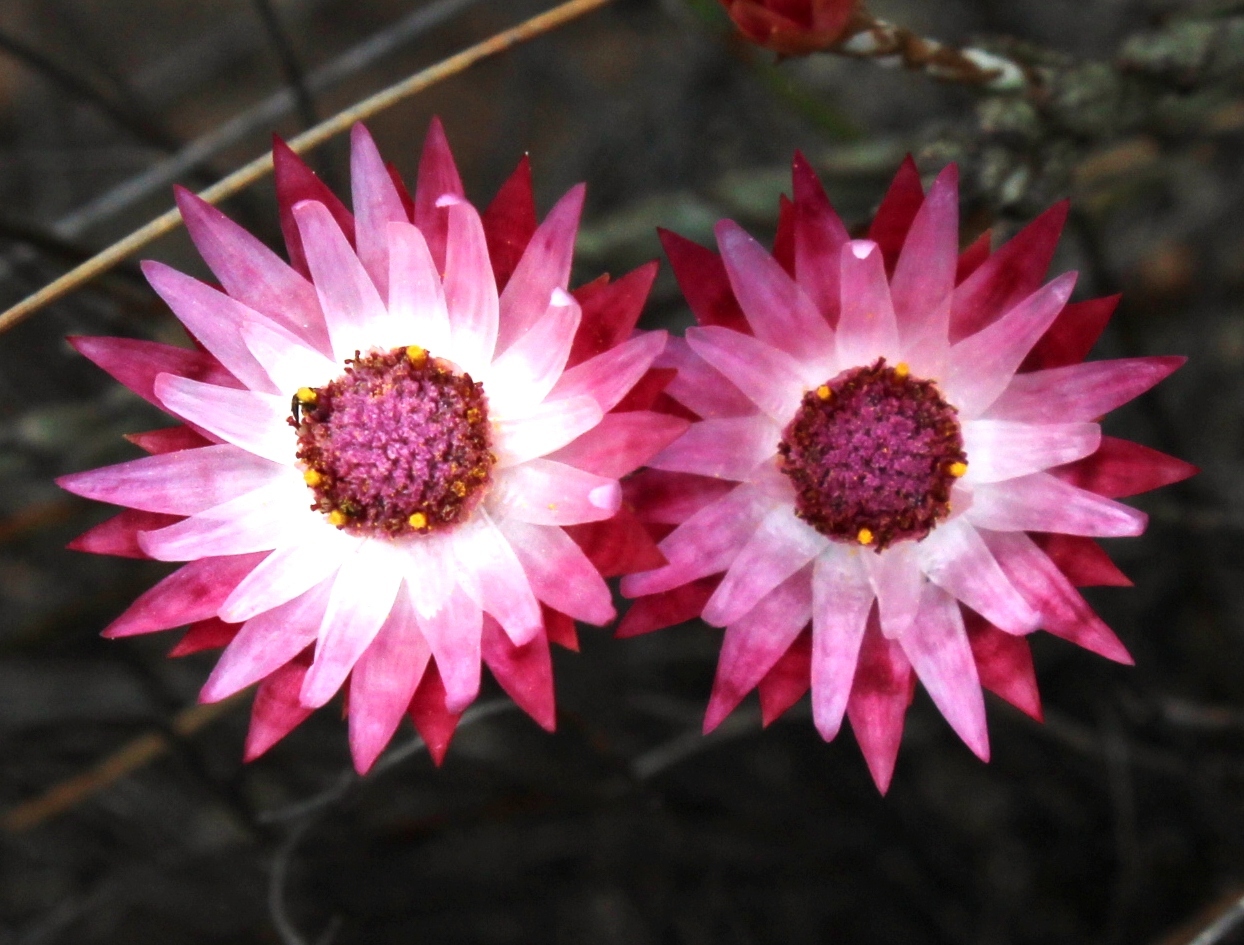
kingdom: Plantae
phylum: Tracheophyta
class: Magnoliopsida
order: Asterales
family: Asteraceae
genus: Edmondia
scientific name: Edmondia pinifolia
